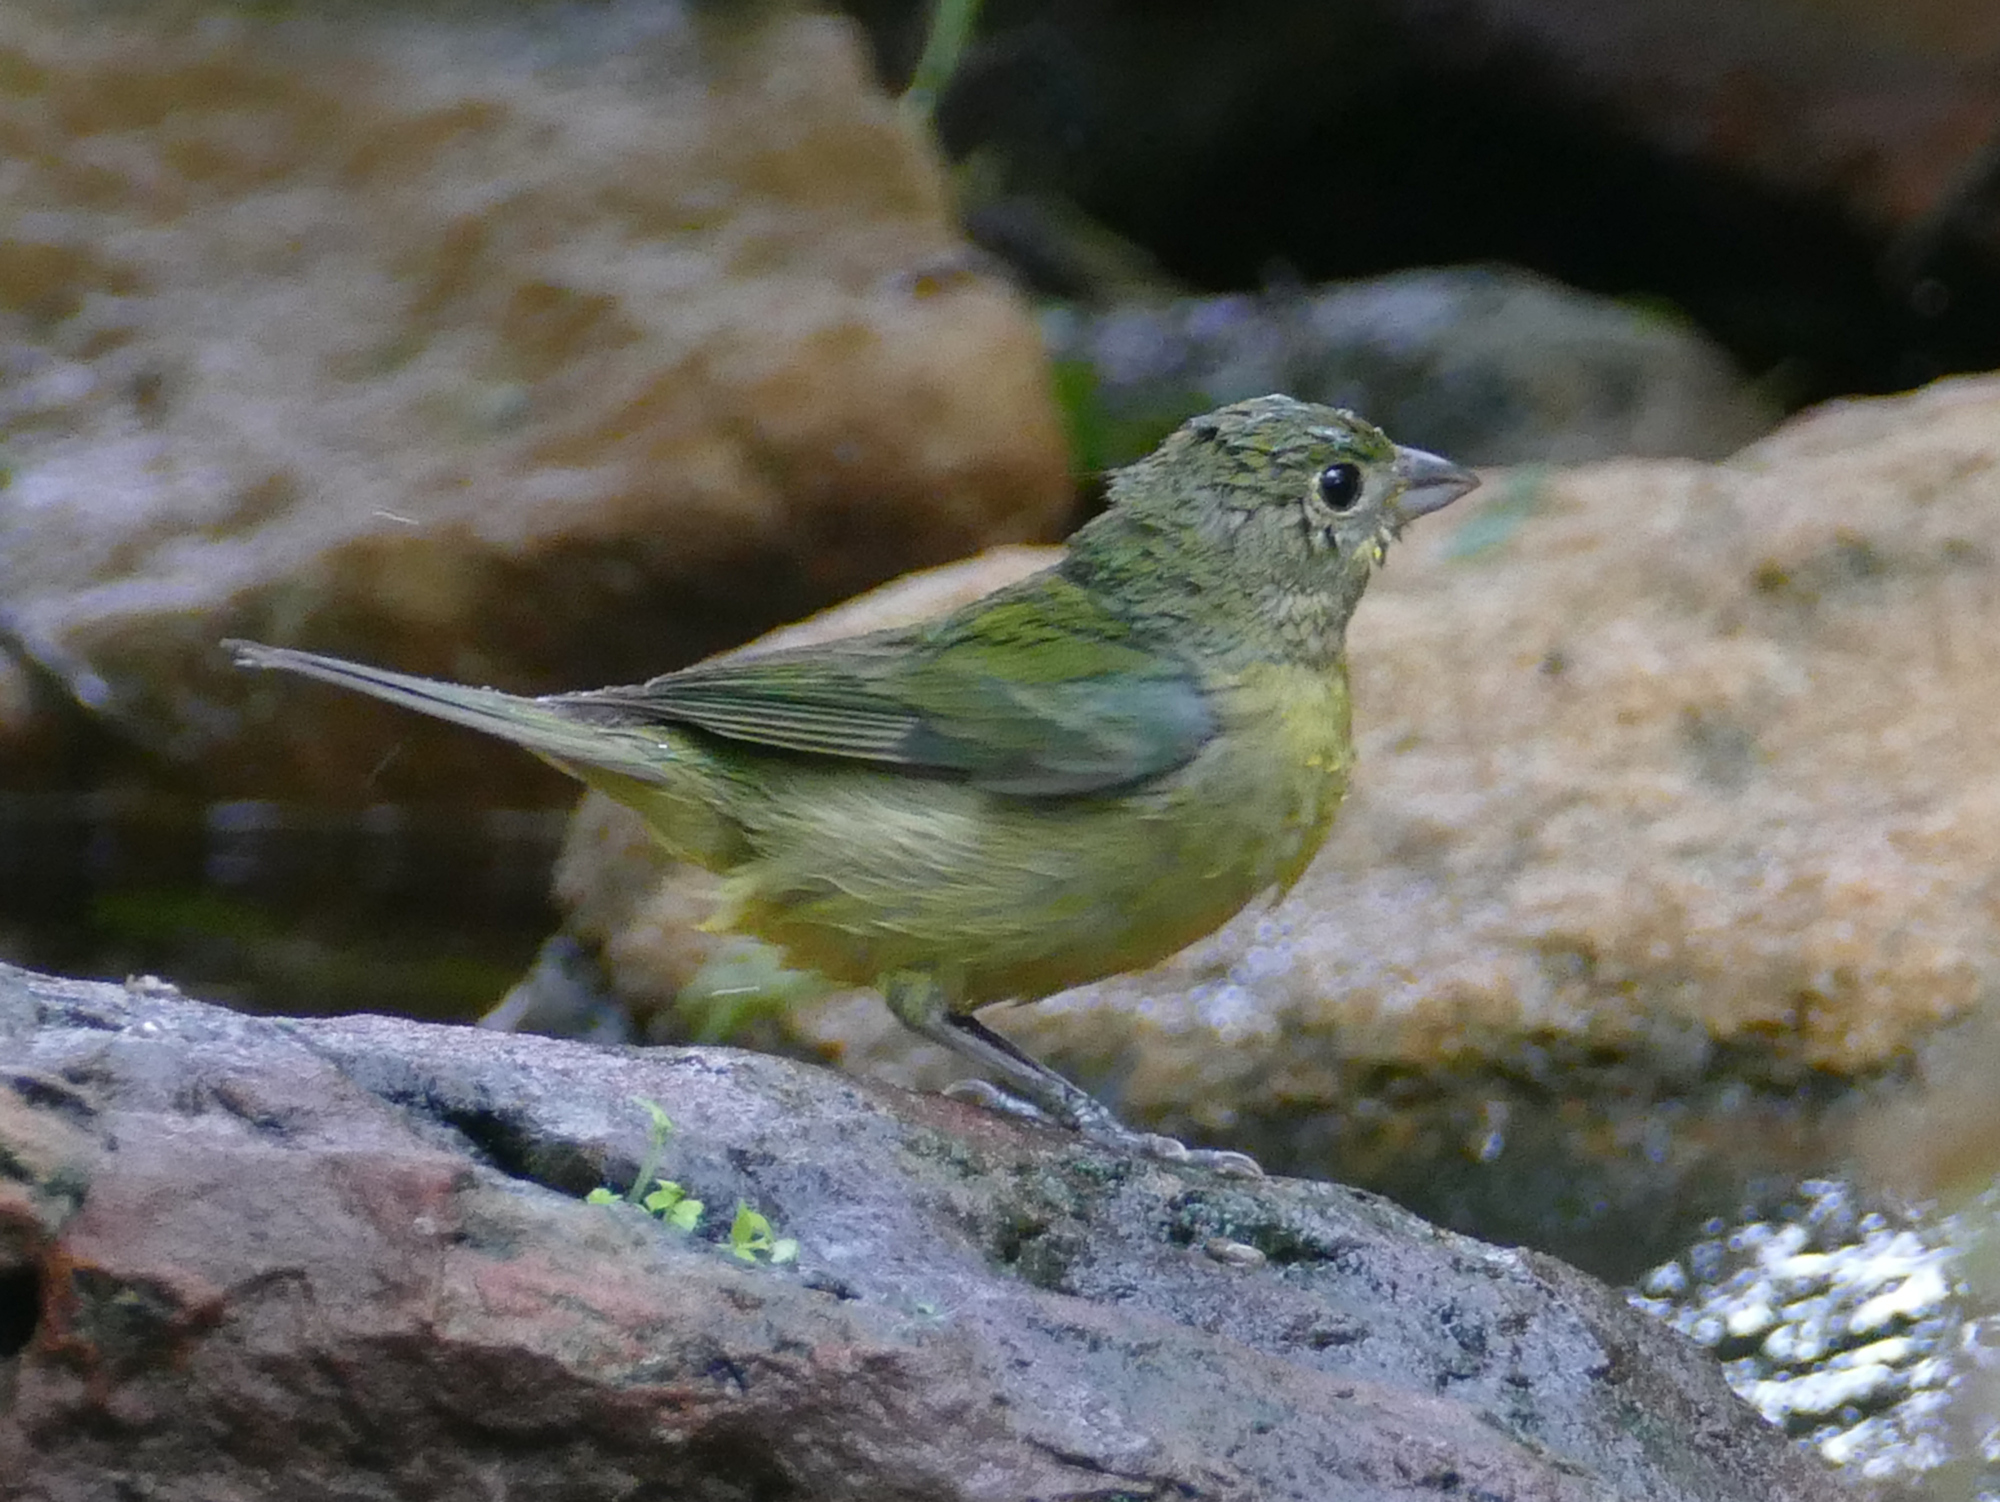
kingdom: Animalia
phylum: Chordata
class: Aves
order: Passeriformes
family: Cardinalidae
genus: Passerina
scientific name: Passerina ciris
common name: Painted bunting
